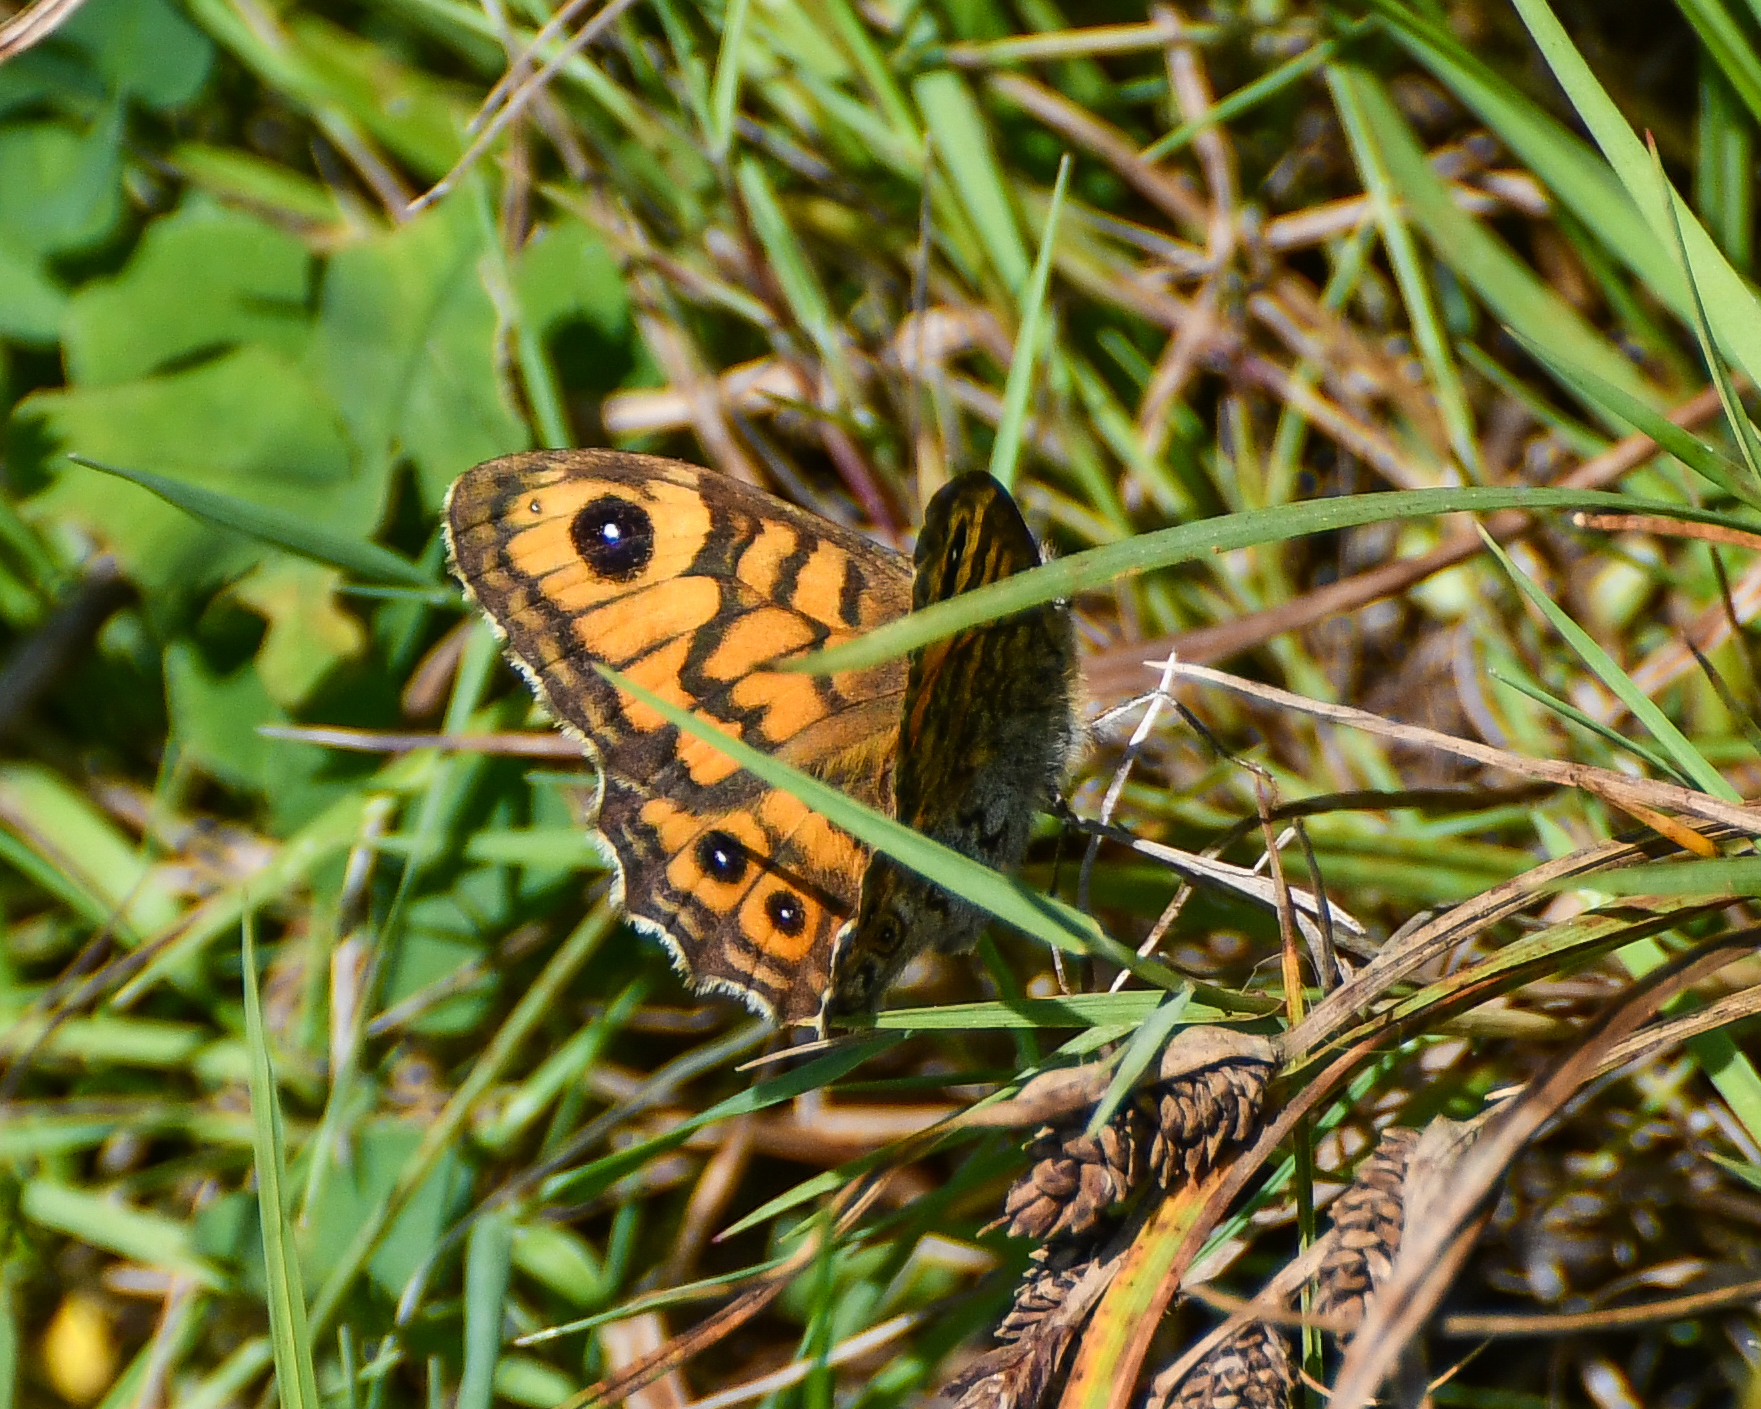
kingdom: Animalia
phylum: Arthropoda
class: Insecta
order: Lepidoptera
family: Nymphalidae
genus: Pararge
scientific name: Pararge Lasiommata megera
